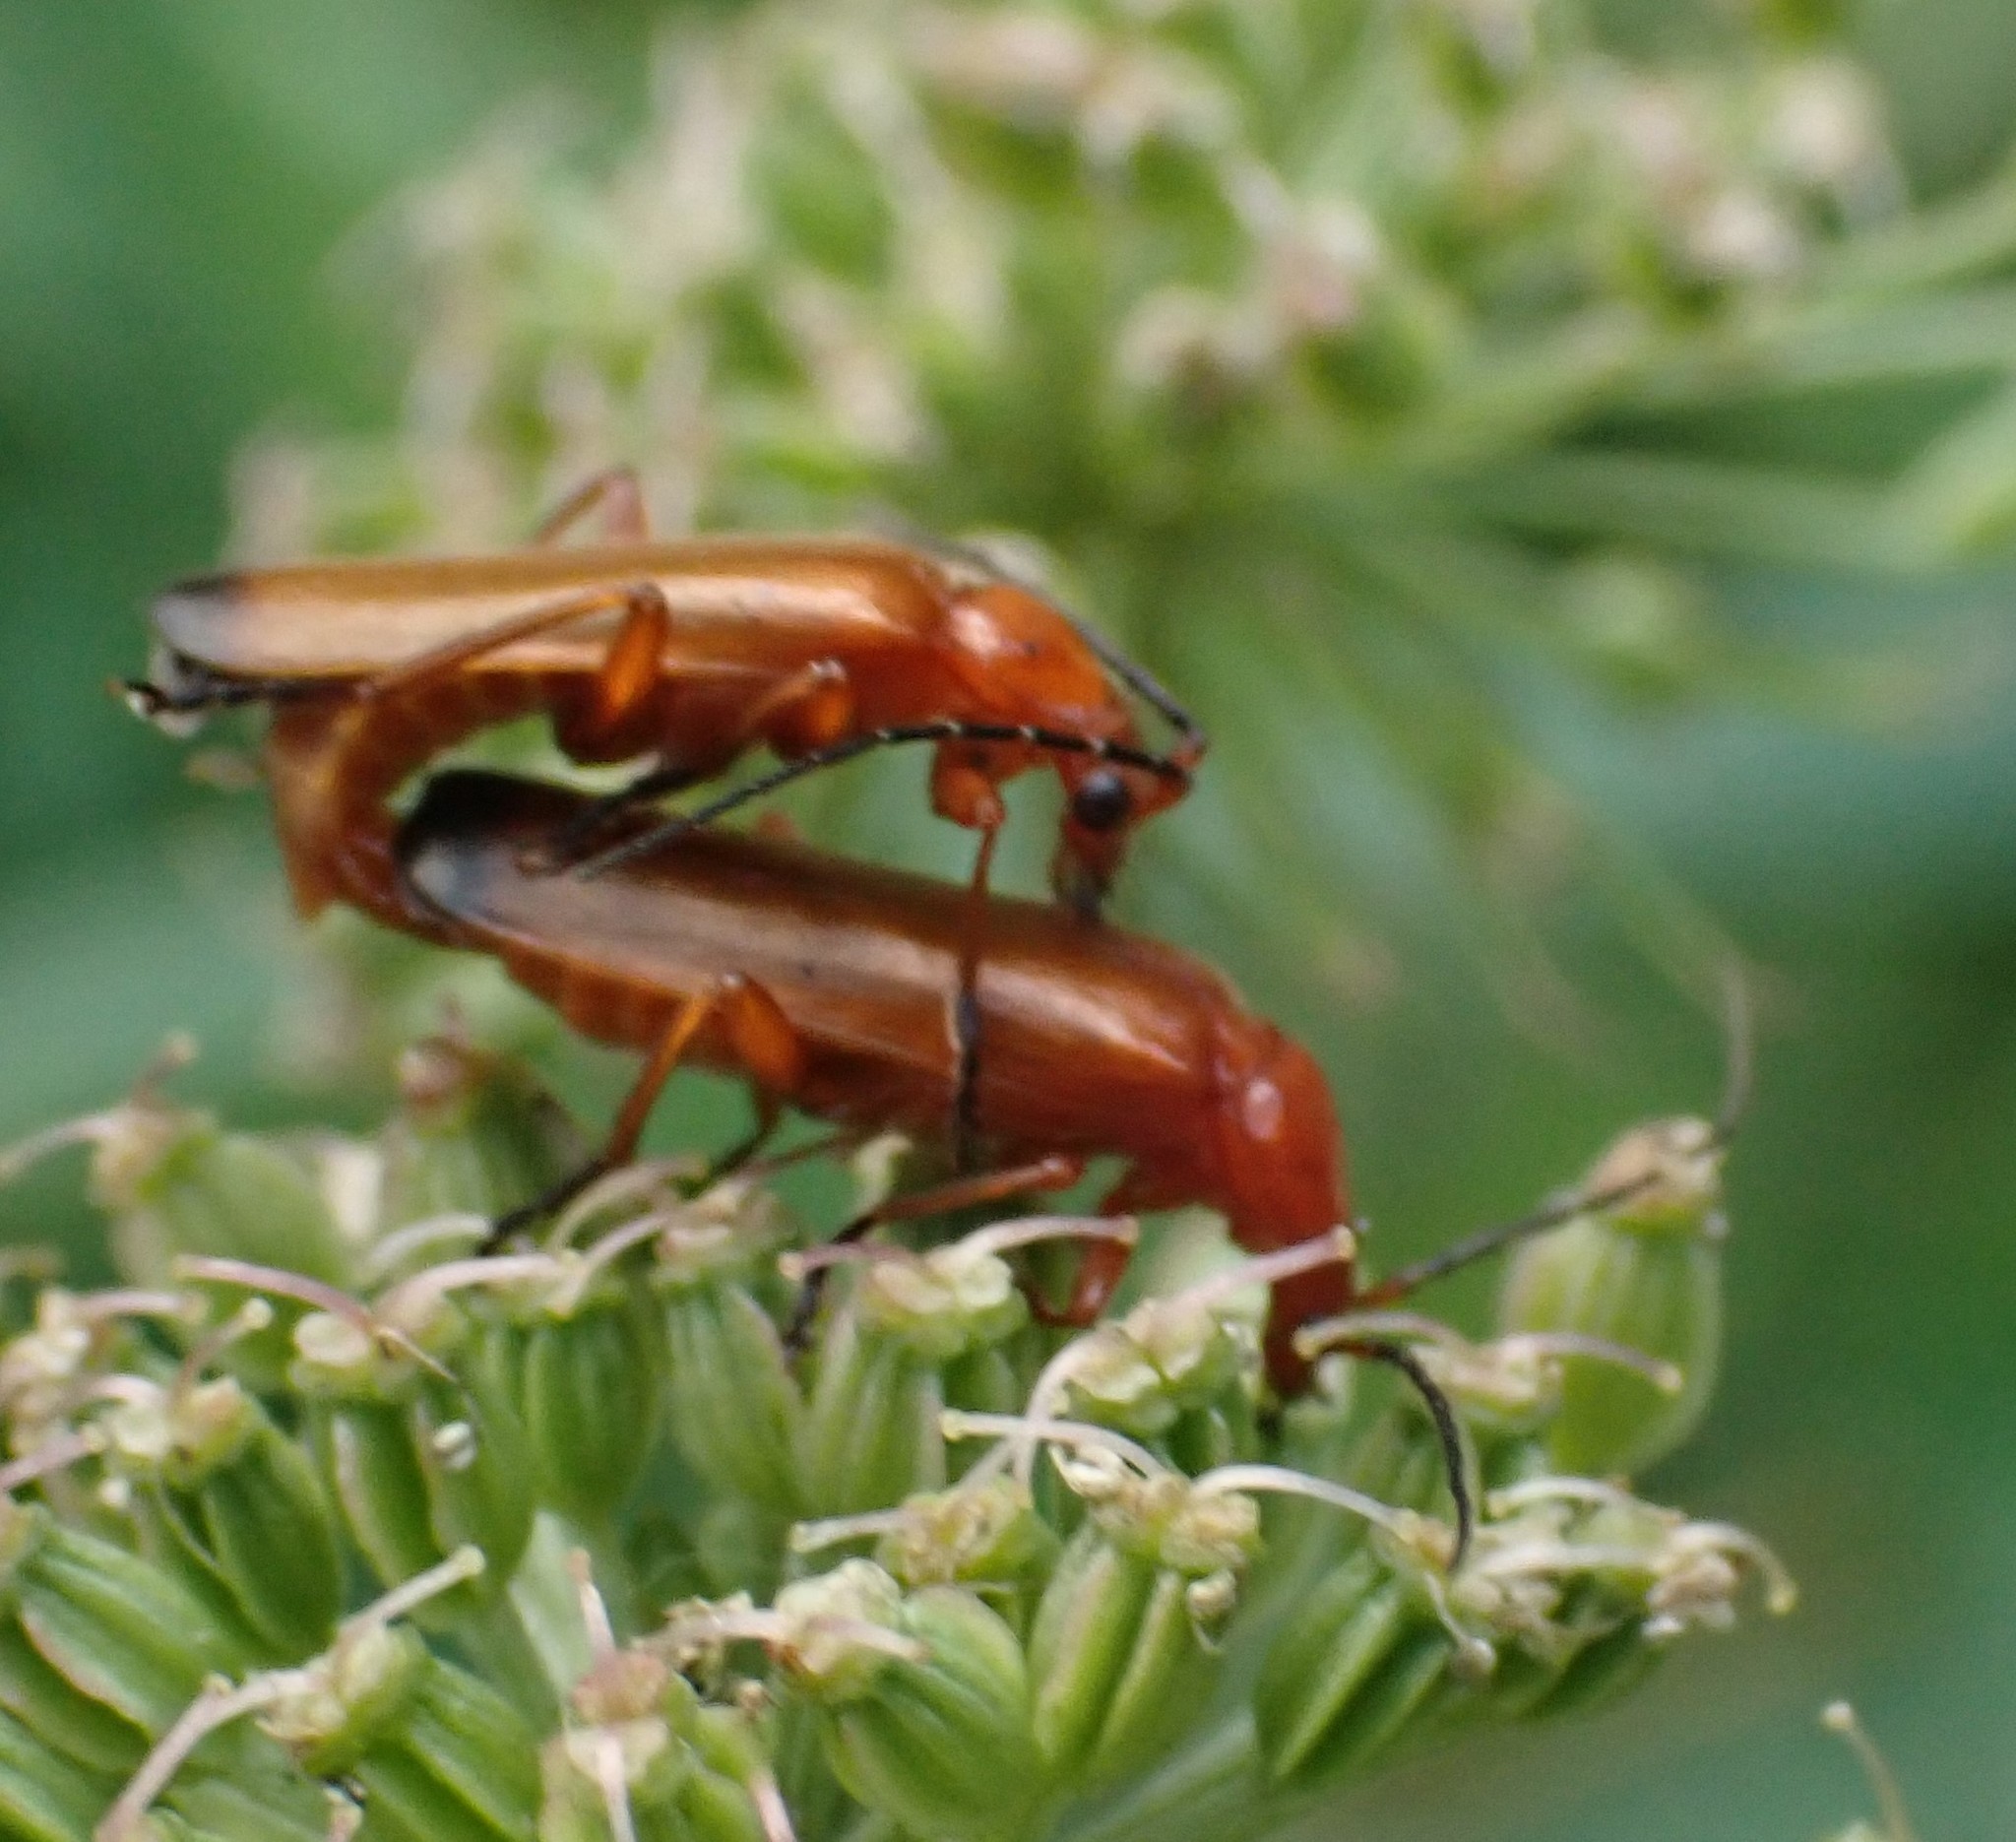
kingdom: Animalia
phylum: Arthropoda
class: Insecta
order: Coleoptera
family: Cantharidae
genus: Rhagonycha
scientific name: Rhagonycha fulva
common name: Common red soldier beetle
